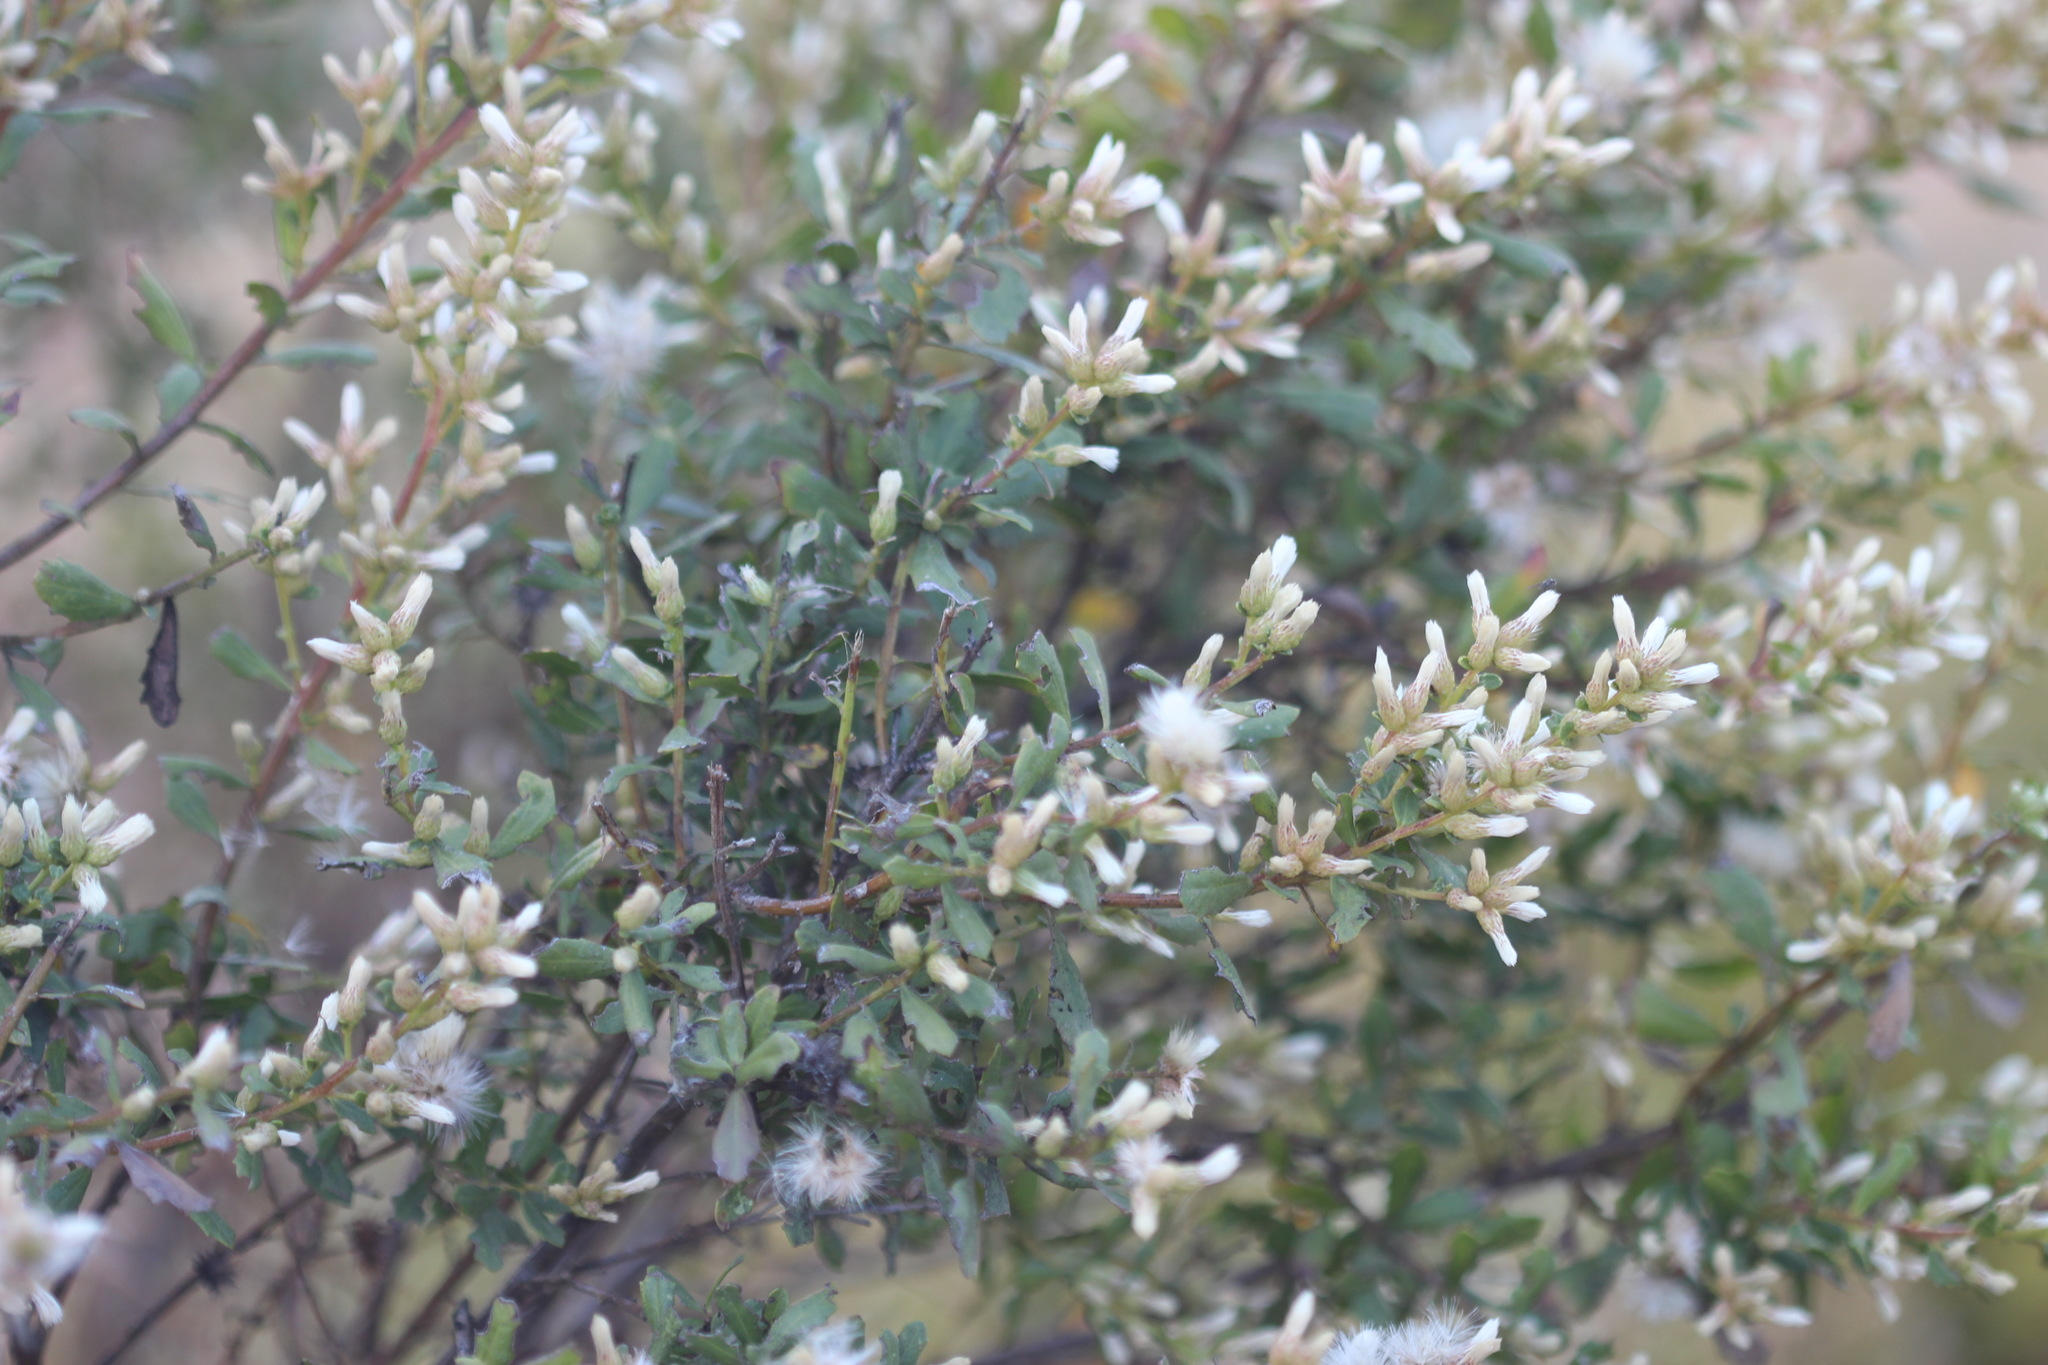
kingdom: Plantae
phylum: Tracheophyta
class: Magnoliopsida
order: Asterales
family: Asteraceae
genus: Baccharis
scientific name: Baccharis pilularis
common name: Coyotebrush
